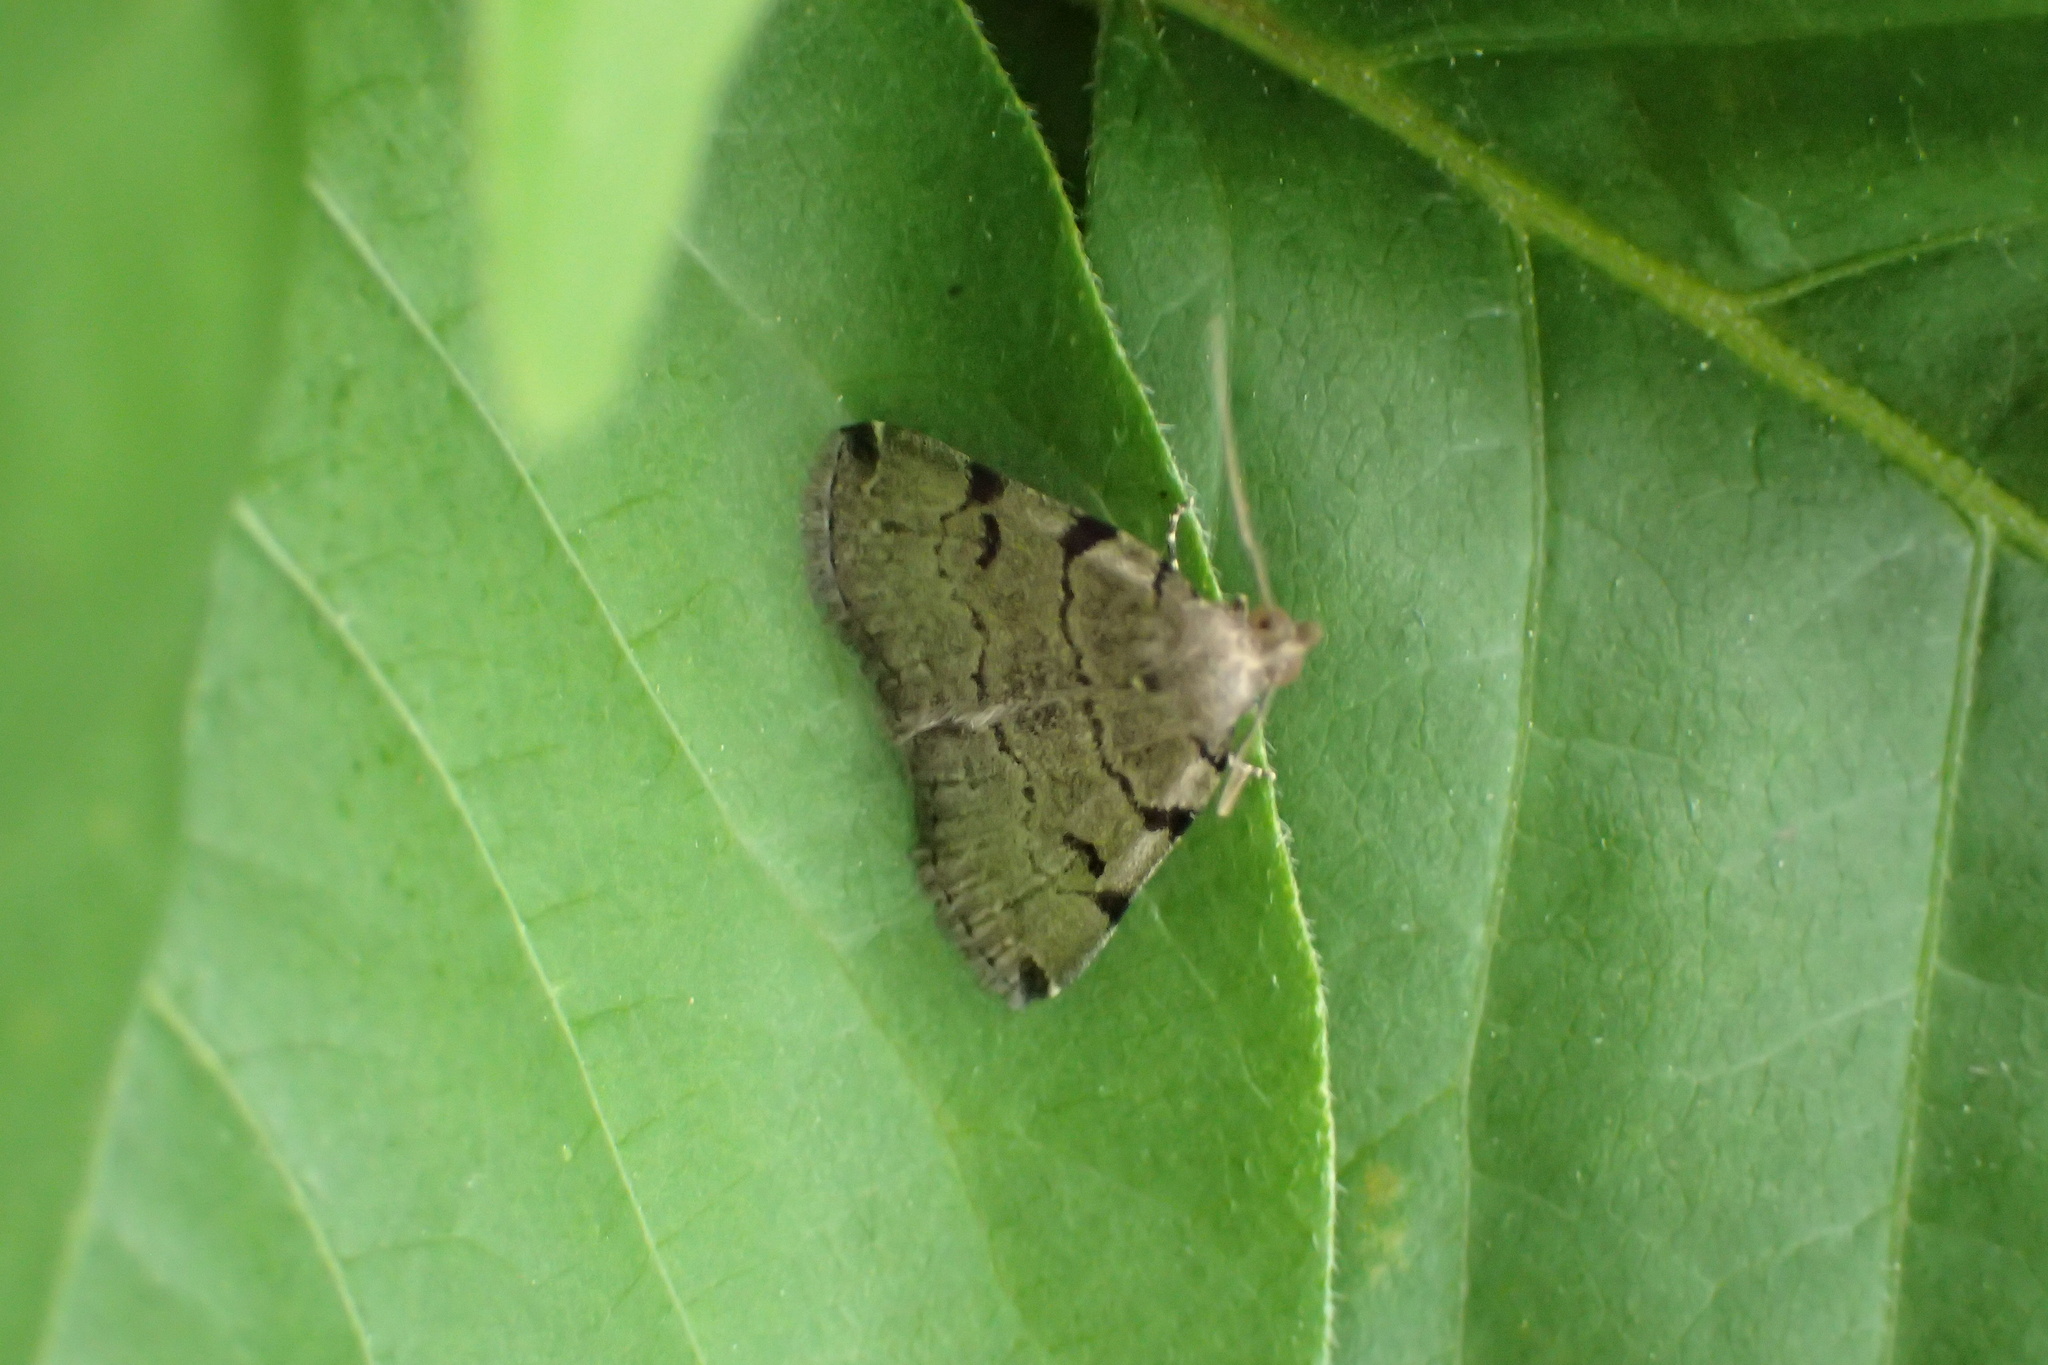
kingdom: Animalia
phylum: Arthropoda
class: Insecta
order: Lepidoptera
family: Erebidae
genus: Zanclognatha
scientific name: Zanclognatha lituralis
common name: Lettered fan-foot
